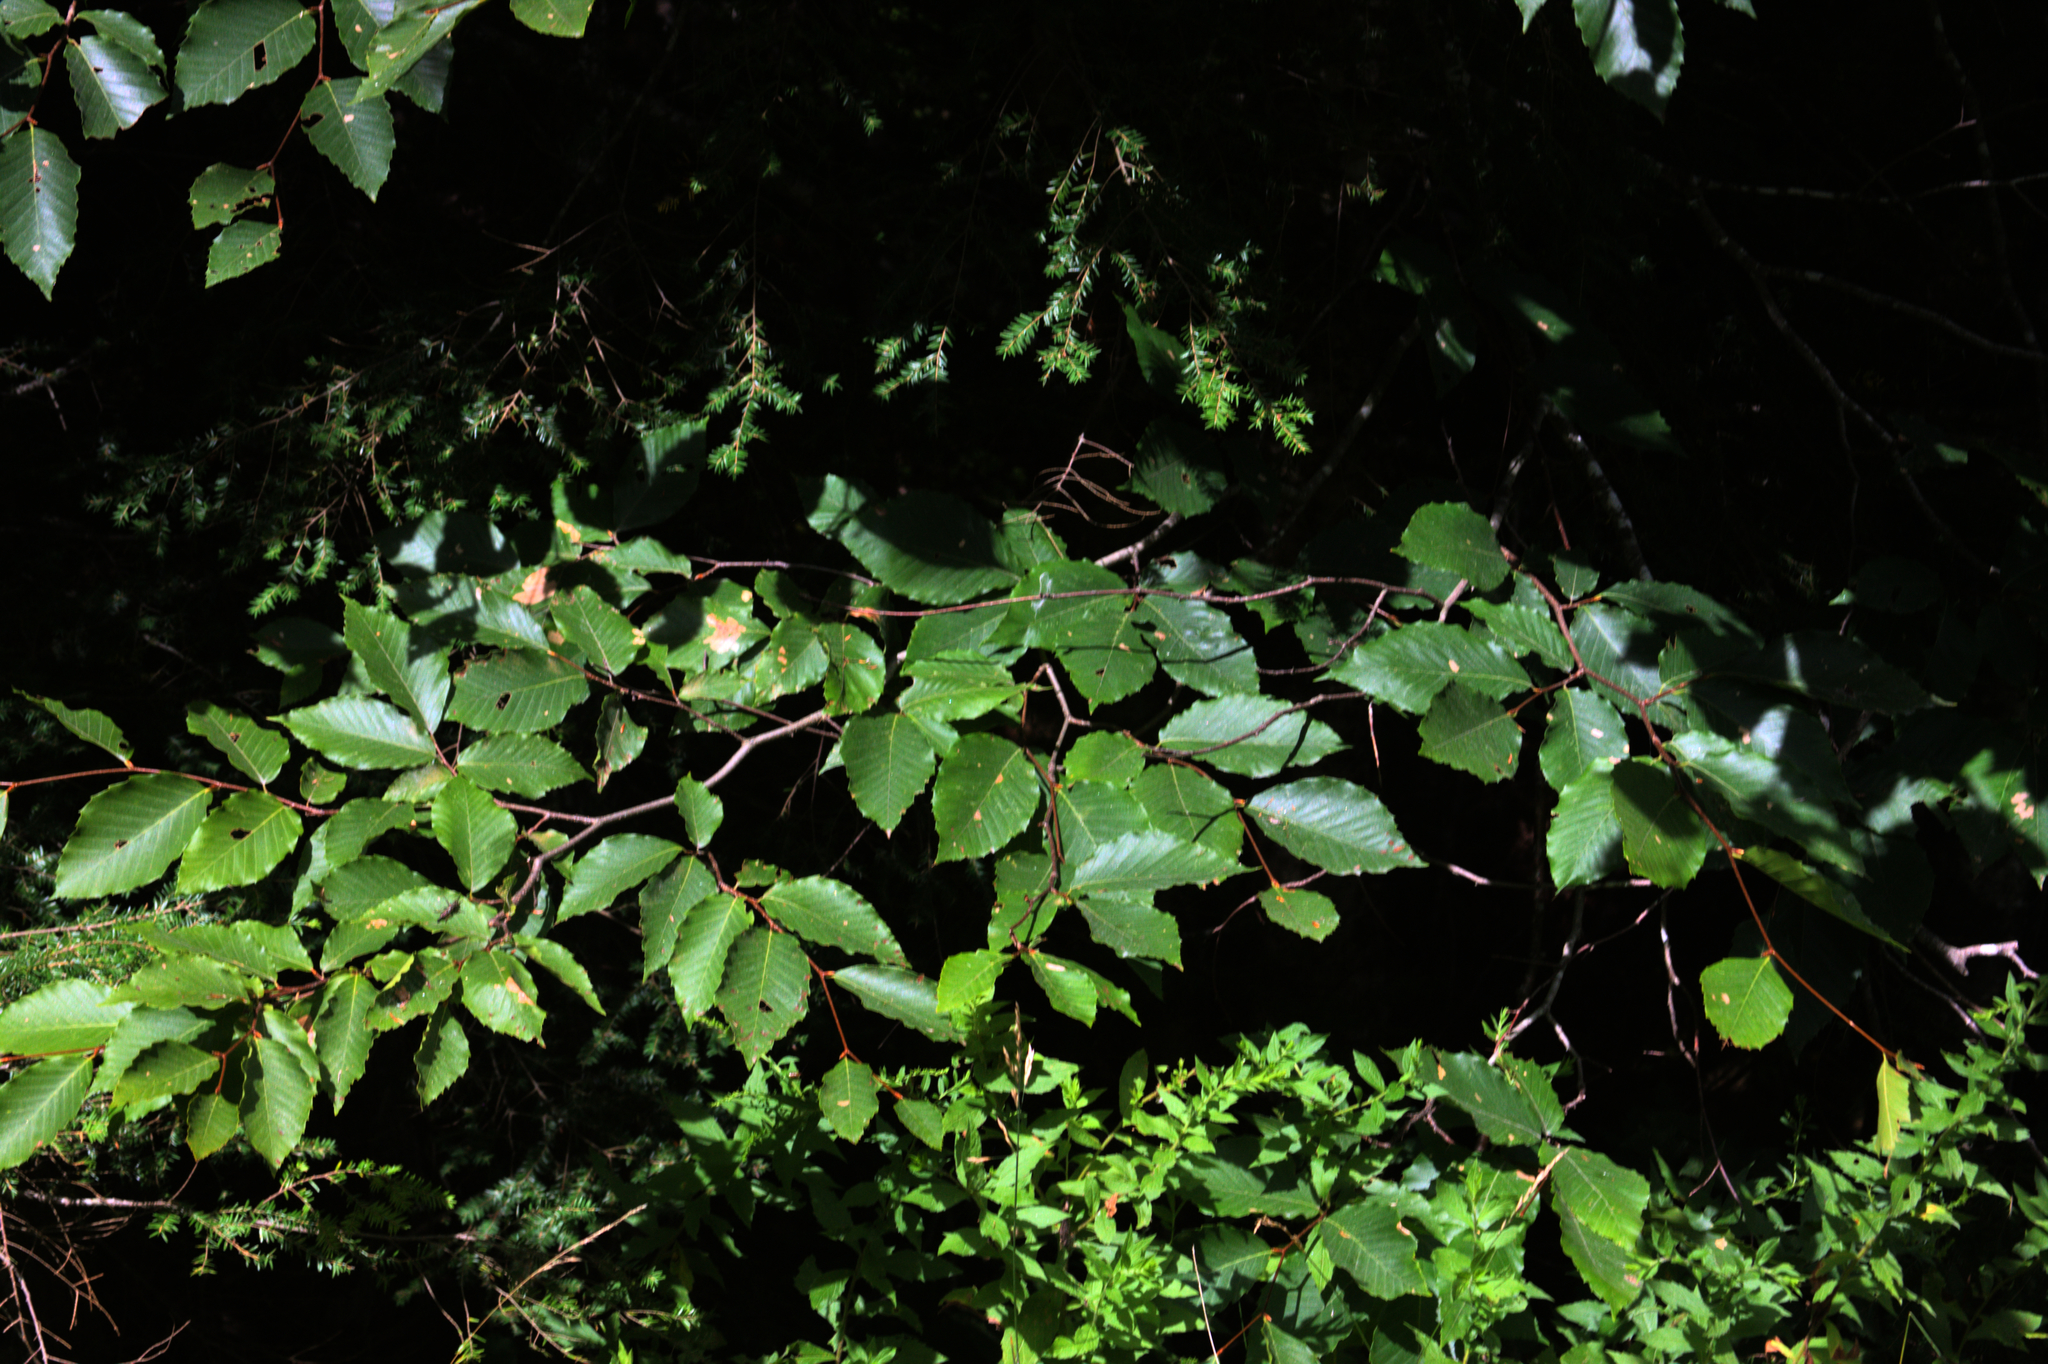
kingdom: Plantae
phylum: Tracheophyta
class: Magnoliopsida
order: Fagales
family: Fagaceae
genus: Fagus
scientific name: Fagus grandifolia
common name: American beech
